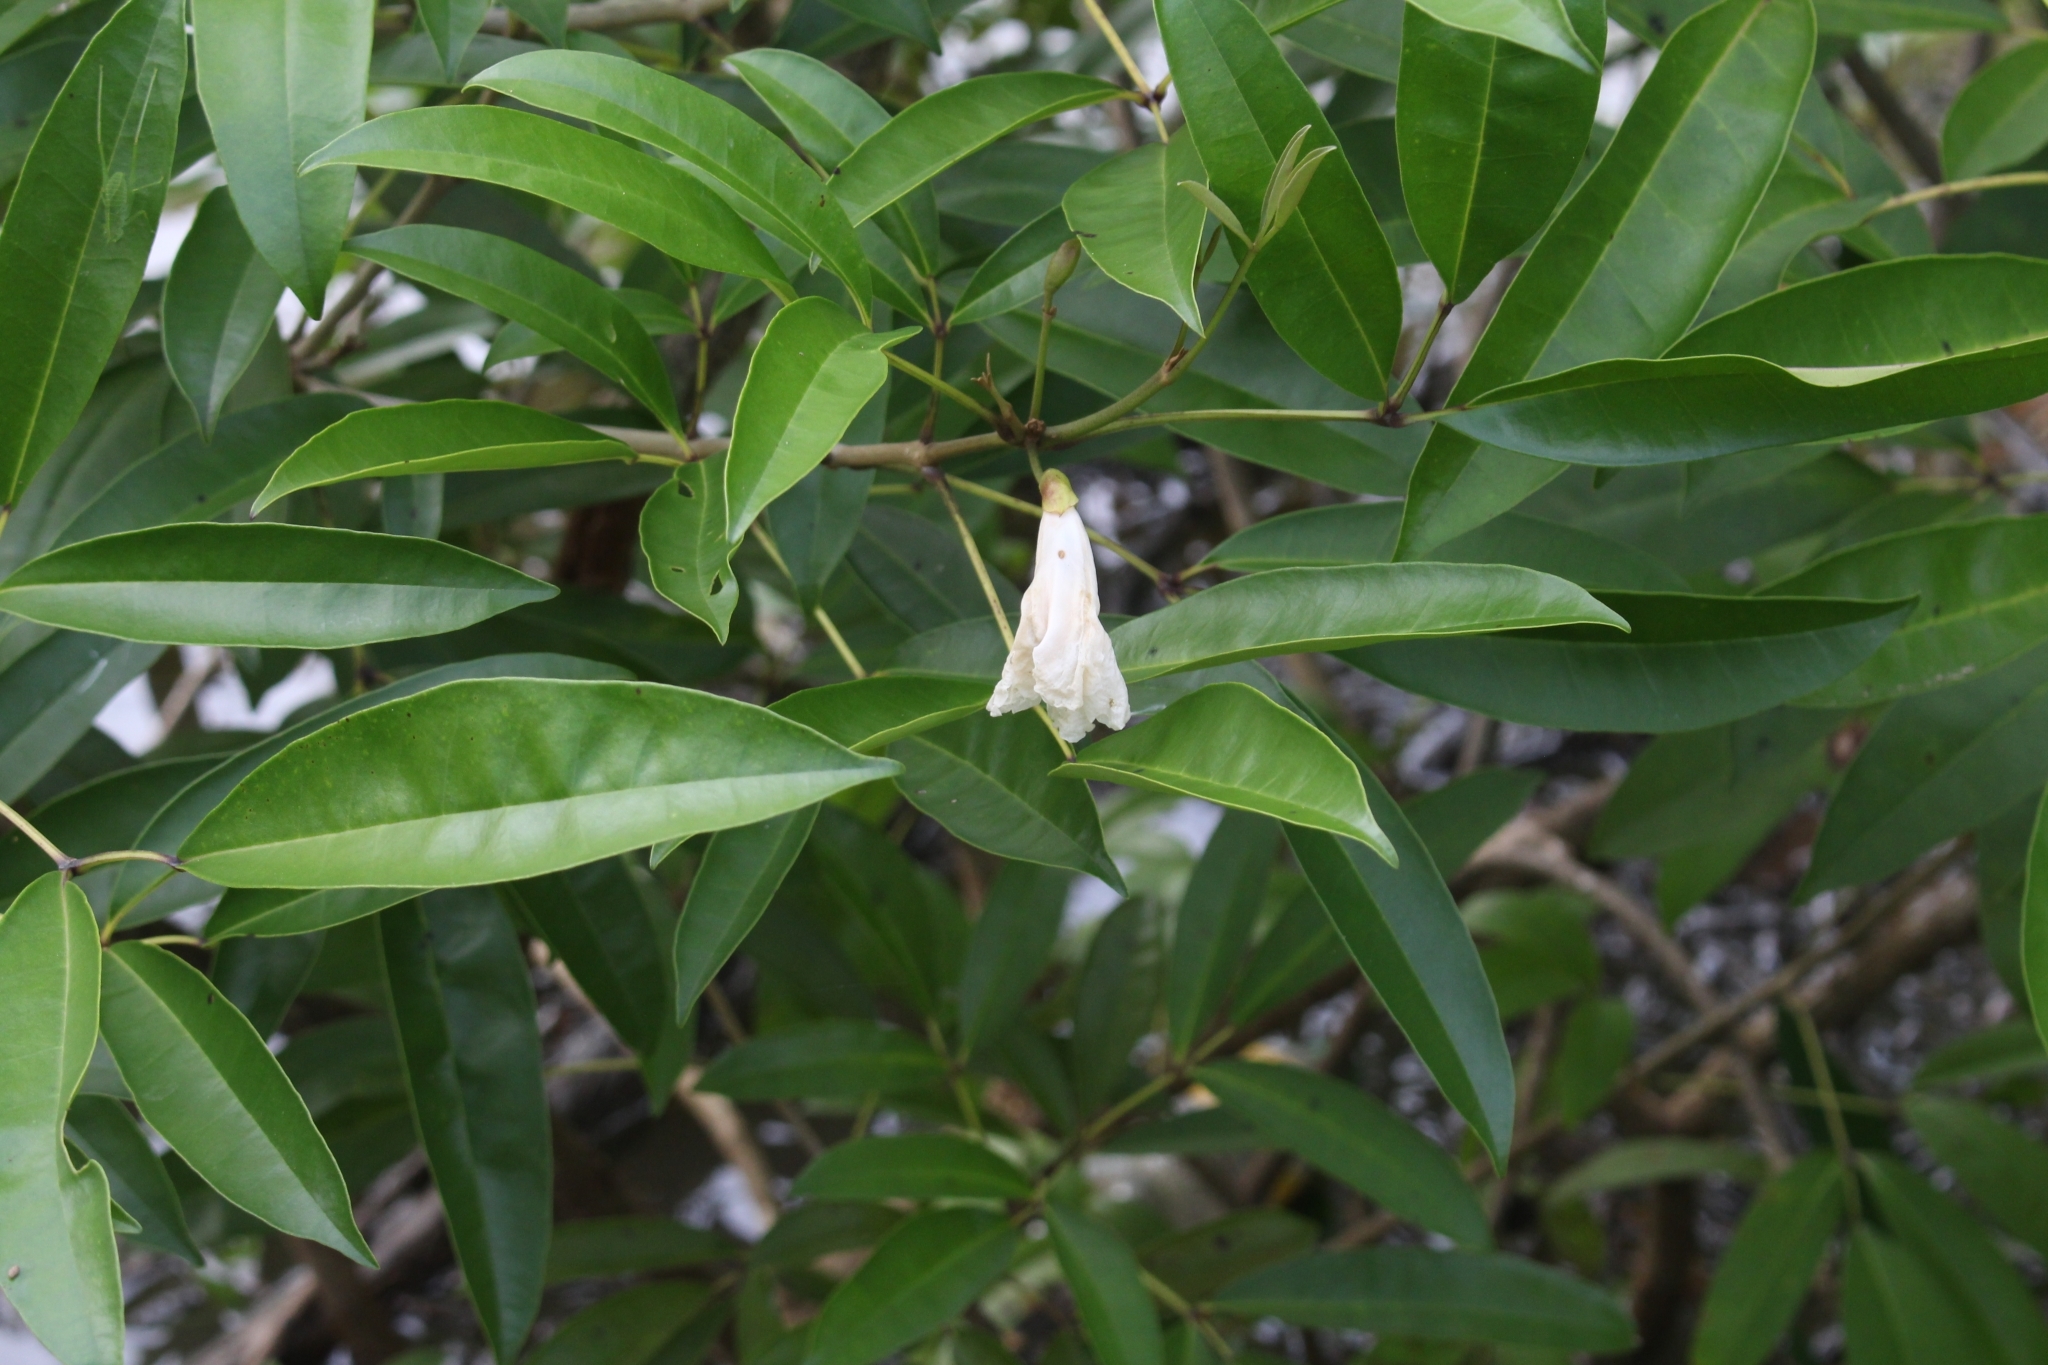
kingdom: Plantae
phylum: Tracheophyta
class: Magnoliopsida
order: Lamiales
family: Bignoniaceae
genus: Tabebuia
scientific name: Tabebuia palustris
